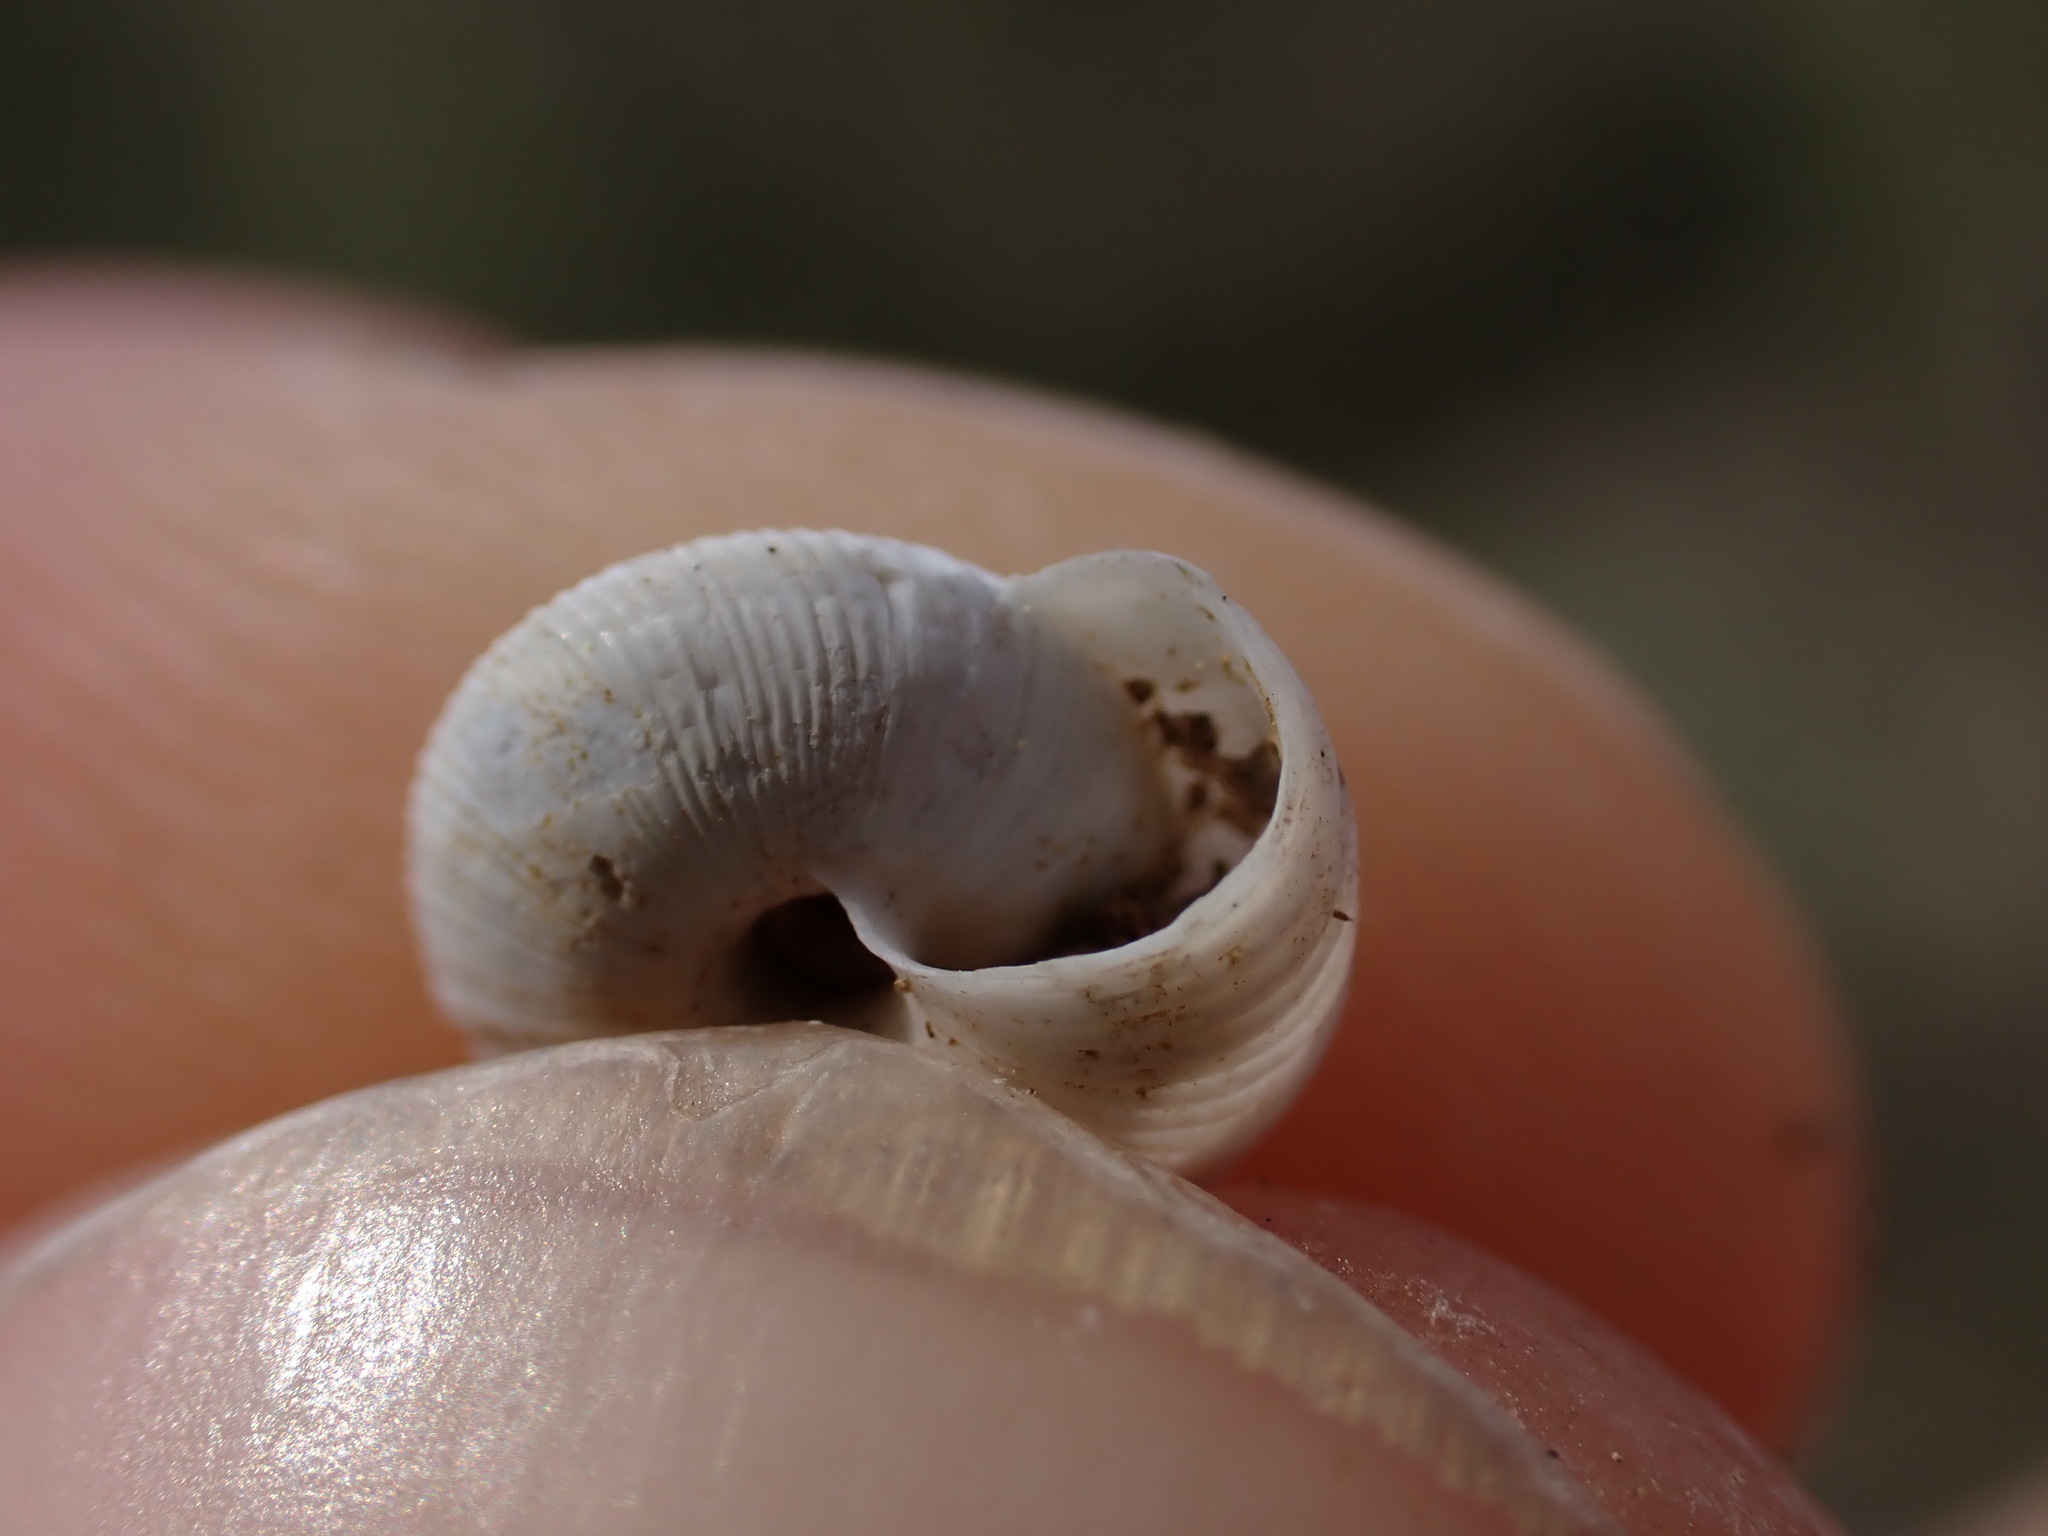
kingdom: Animalia
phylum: Mollusca
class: Gastropoda
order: Stylommatophora
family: Geomitridae
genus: Candidula
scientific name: Candidula rugosiuscula
